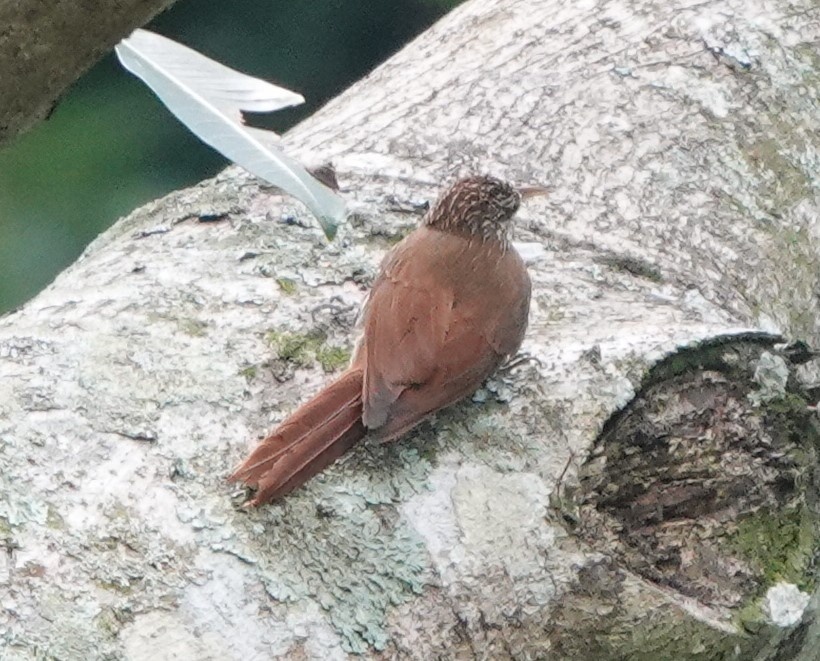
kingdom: Animalia
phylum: Chordata
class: Aves
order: Passeriformes
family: Furnariidae
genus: Lepidocolaptes
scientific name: Lepidocolaptes souleyetii
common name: Streak-headed woodcreeper
